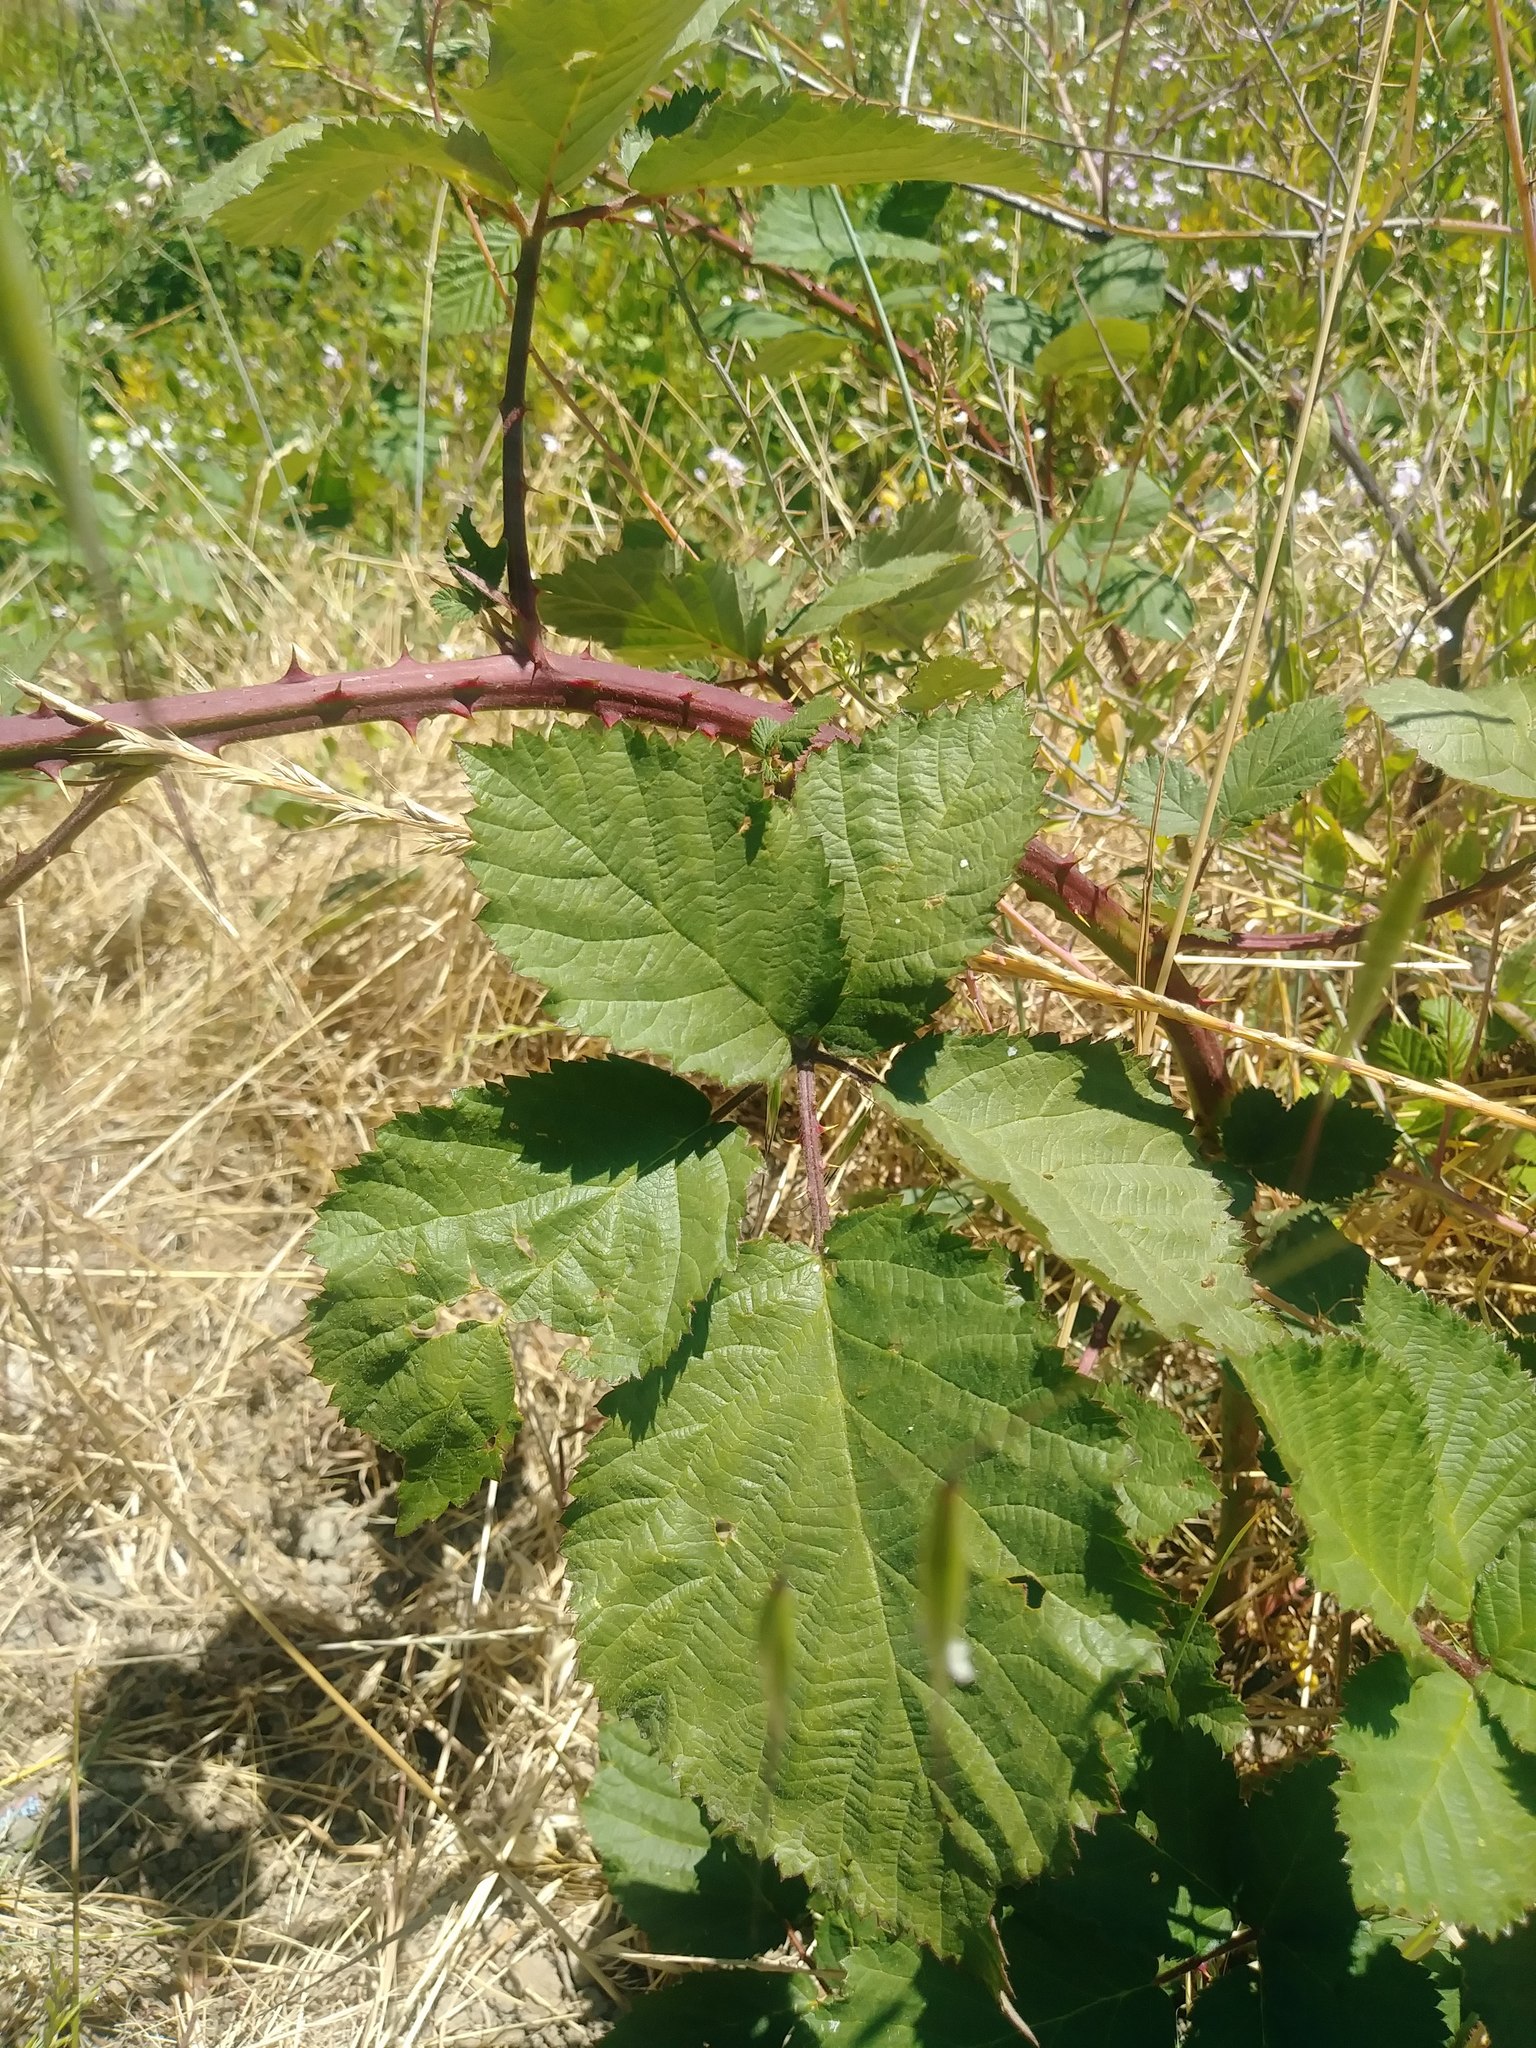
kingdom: Plantae
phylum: Tracheophyta
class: Magnoliopsida
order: Rosales
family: Rosaceae
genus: Rubus
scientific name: Rubus armeniacus
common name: Himalayan blackberry
